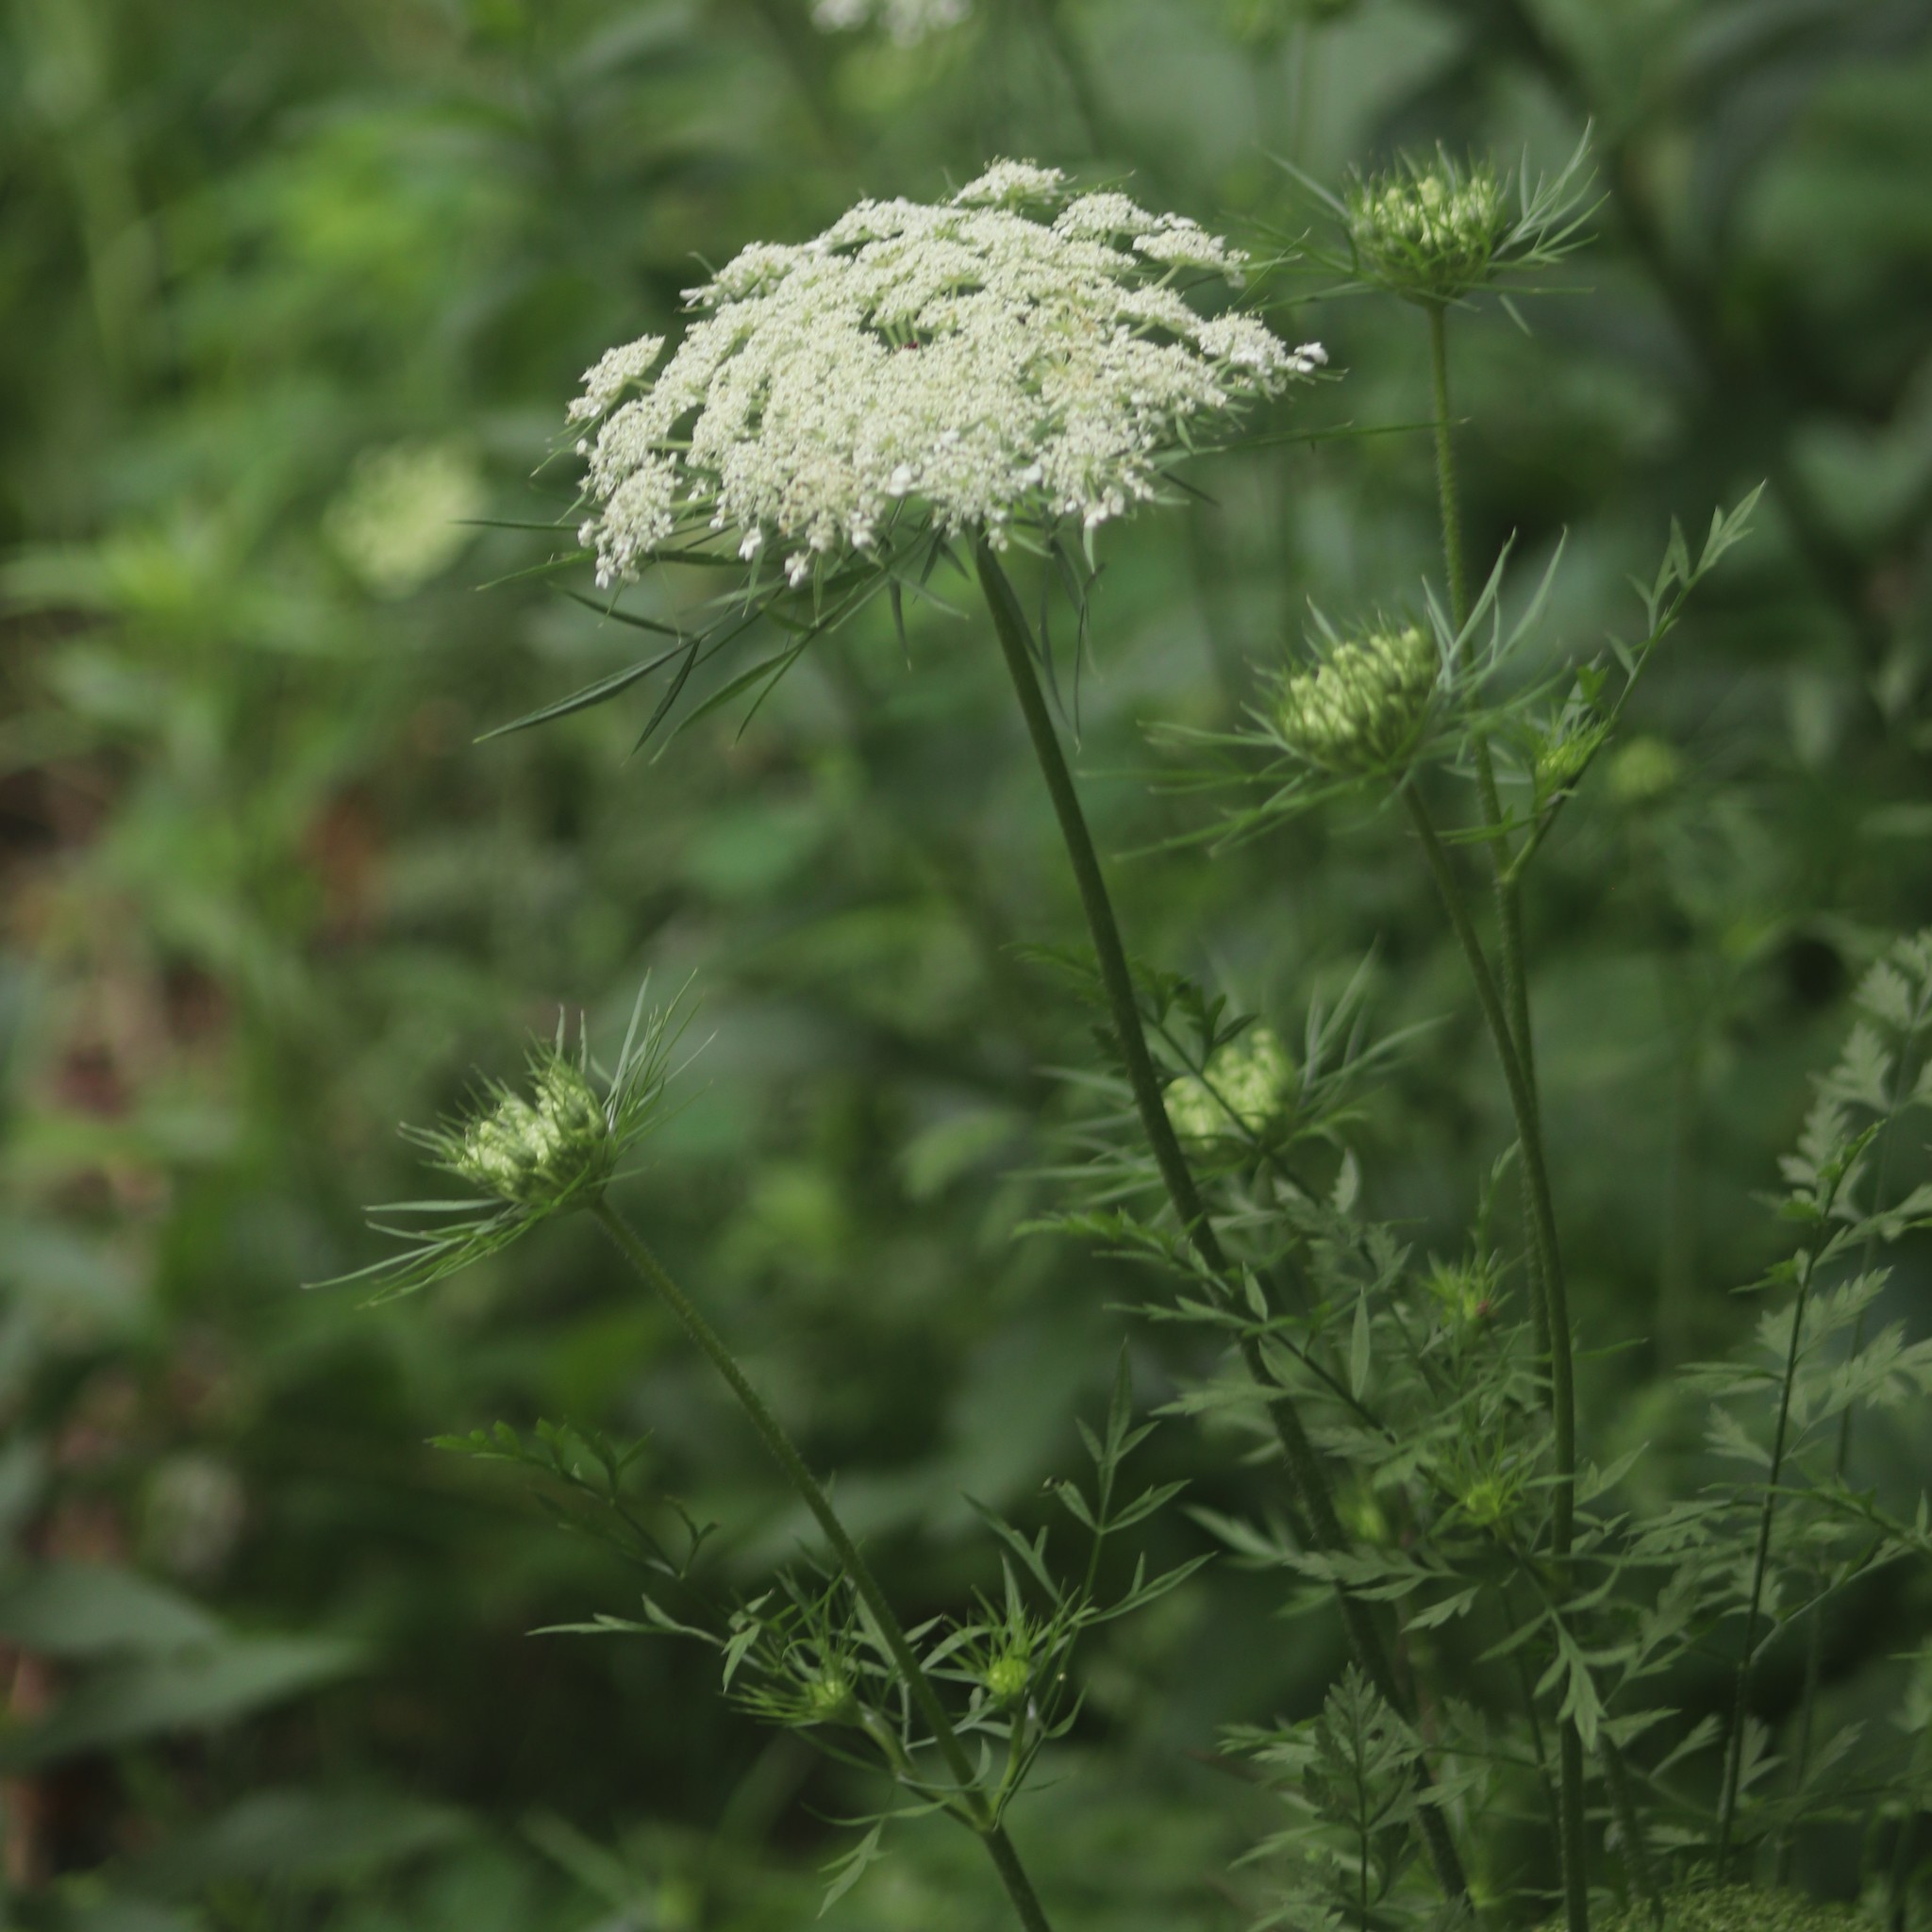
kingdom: Plantae
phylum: Tracheophyta
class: Magnoliopsida
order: Apiales
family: Apiaceae
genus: Daucus
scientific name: Daucus carota
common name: Wild carrot
